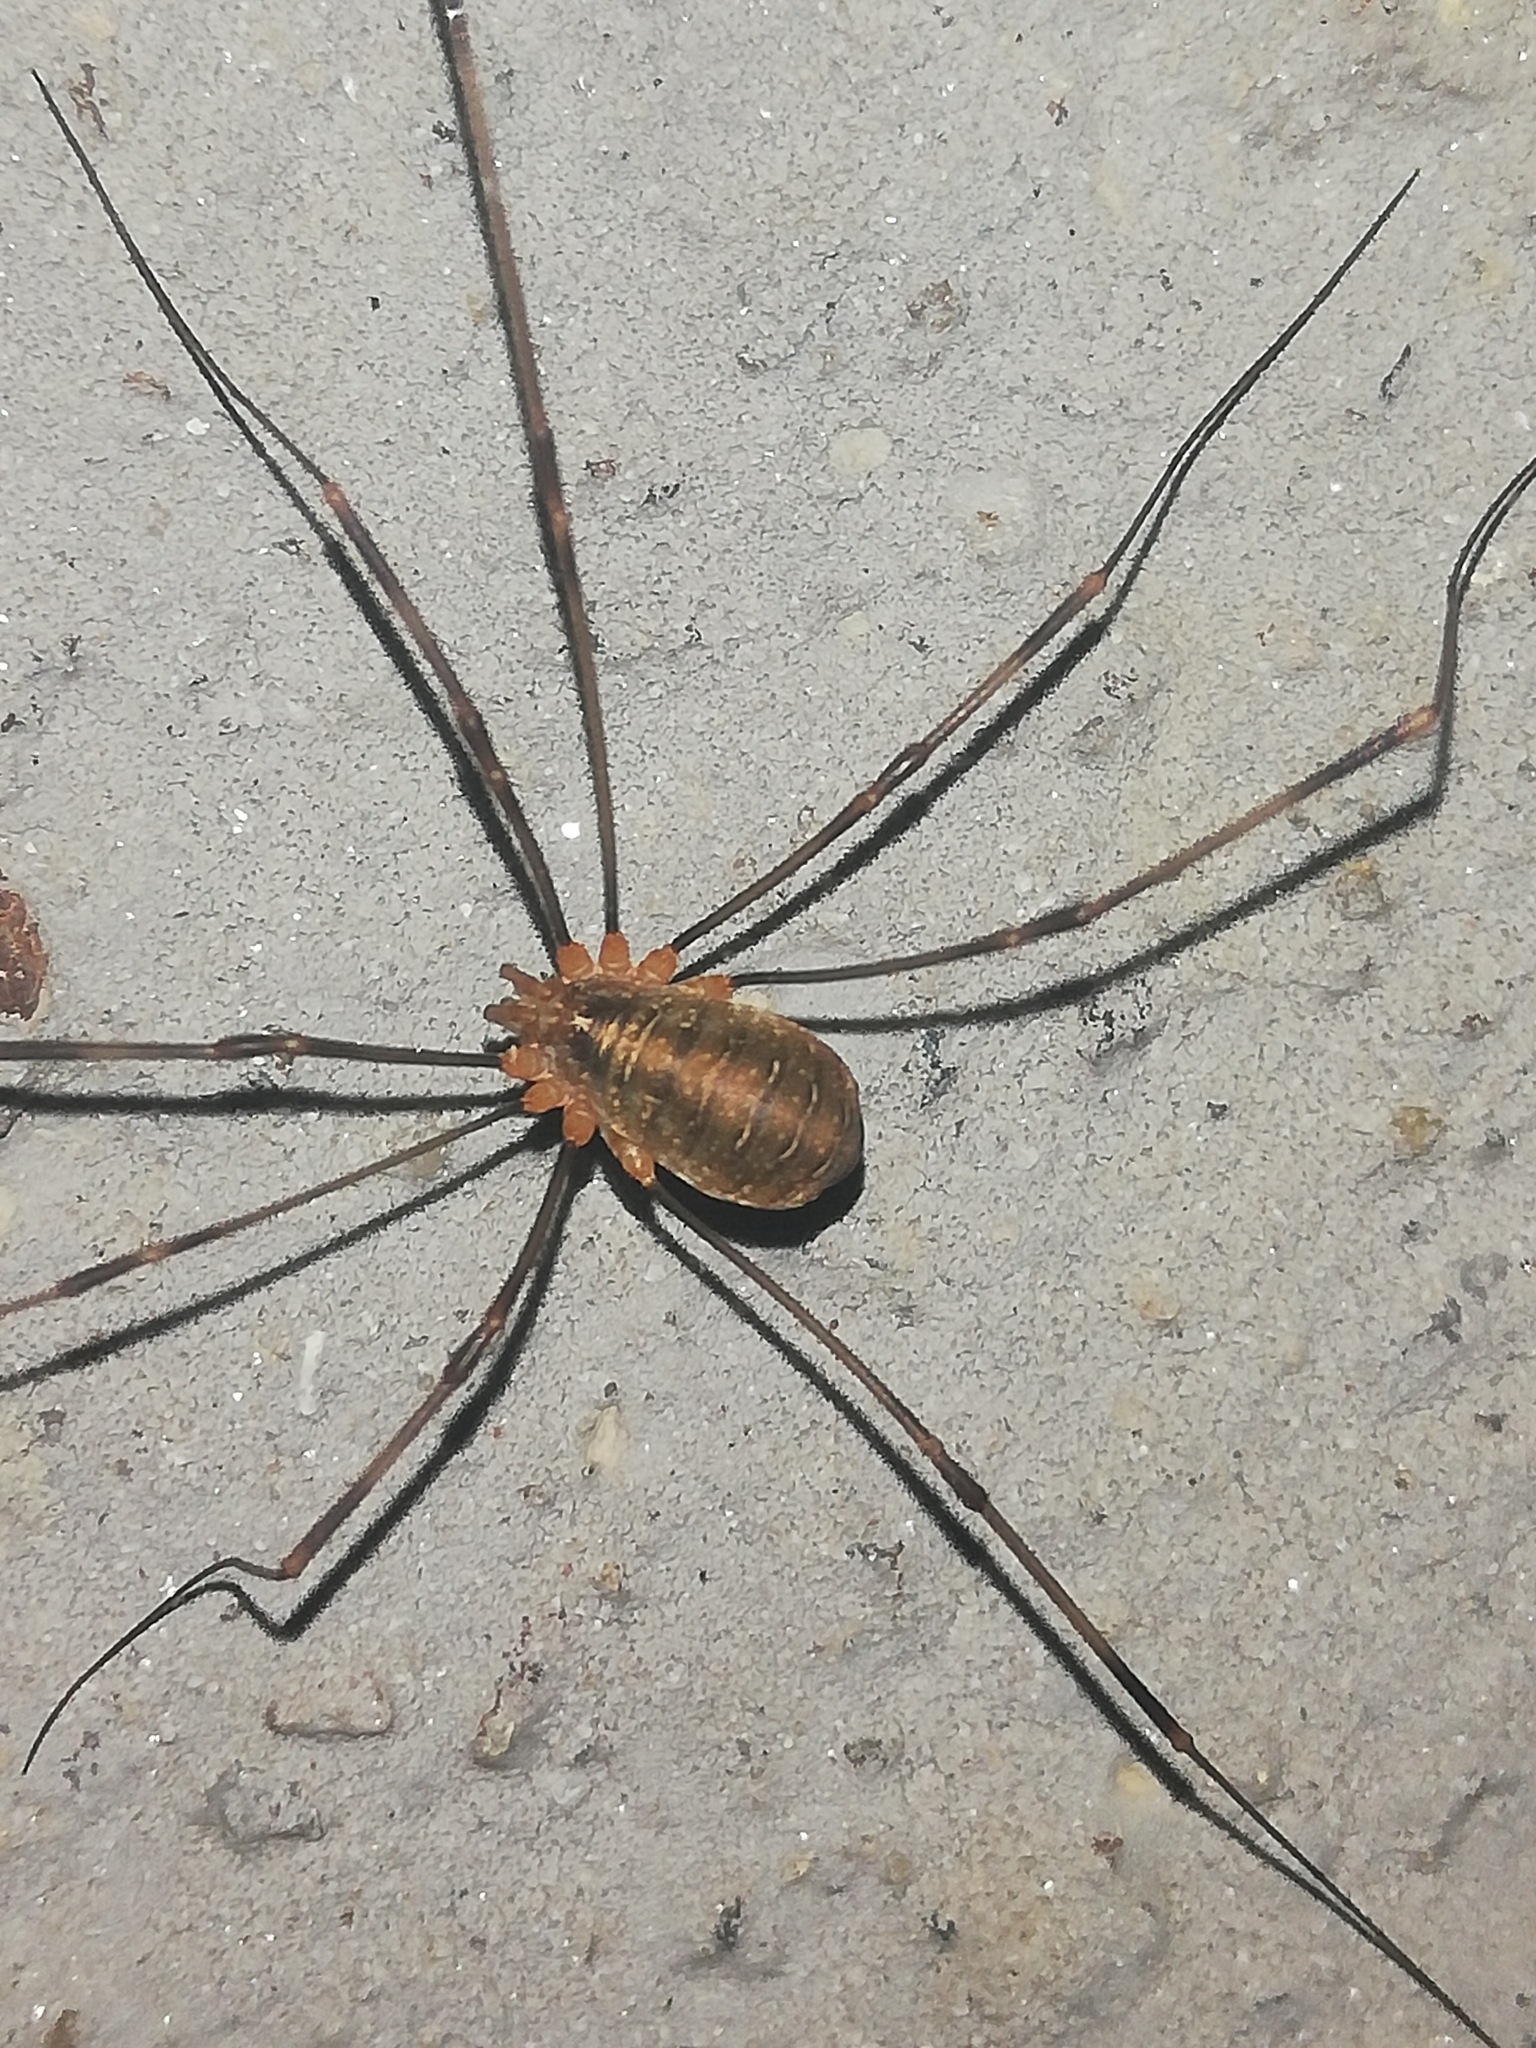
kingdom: Animalia
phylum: Arthropoda
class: Arachnida
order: Opiliones
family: Phalangiidae
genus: Opilio
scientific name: Opilio canestrinii
